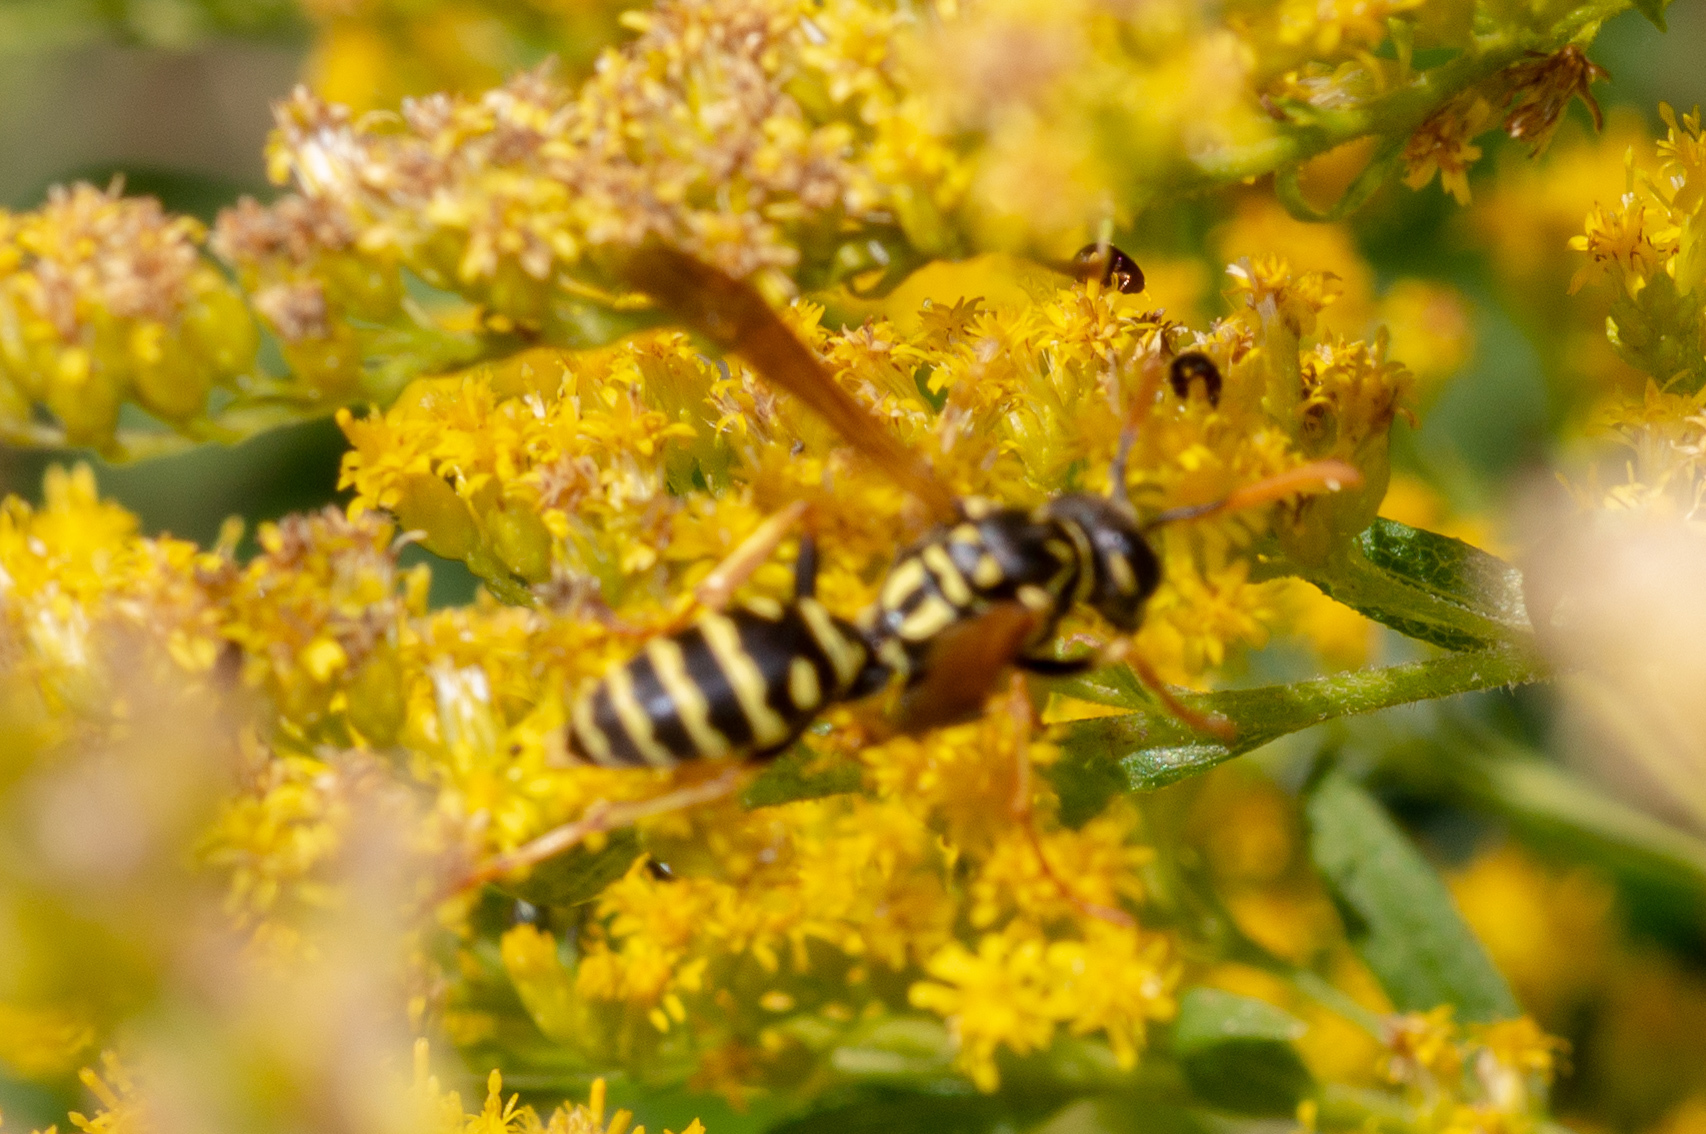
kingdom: Animalia
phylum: Arthropoda
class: Insecta
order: Hymenoptera
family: Eumenidae
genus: Polistes
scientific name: Polistes dominula
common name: Paper wasp
